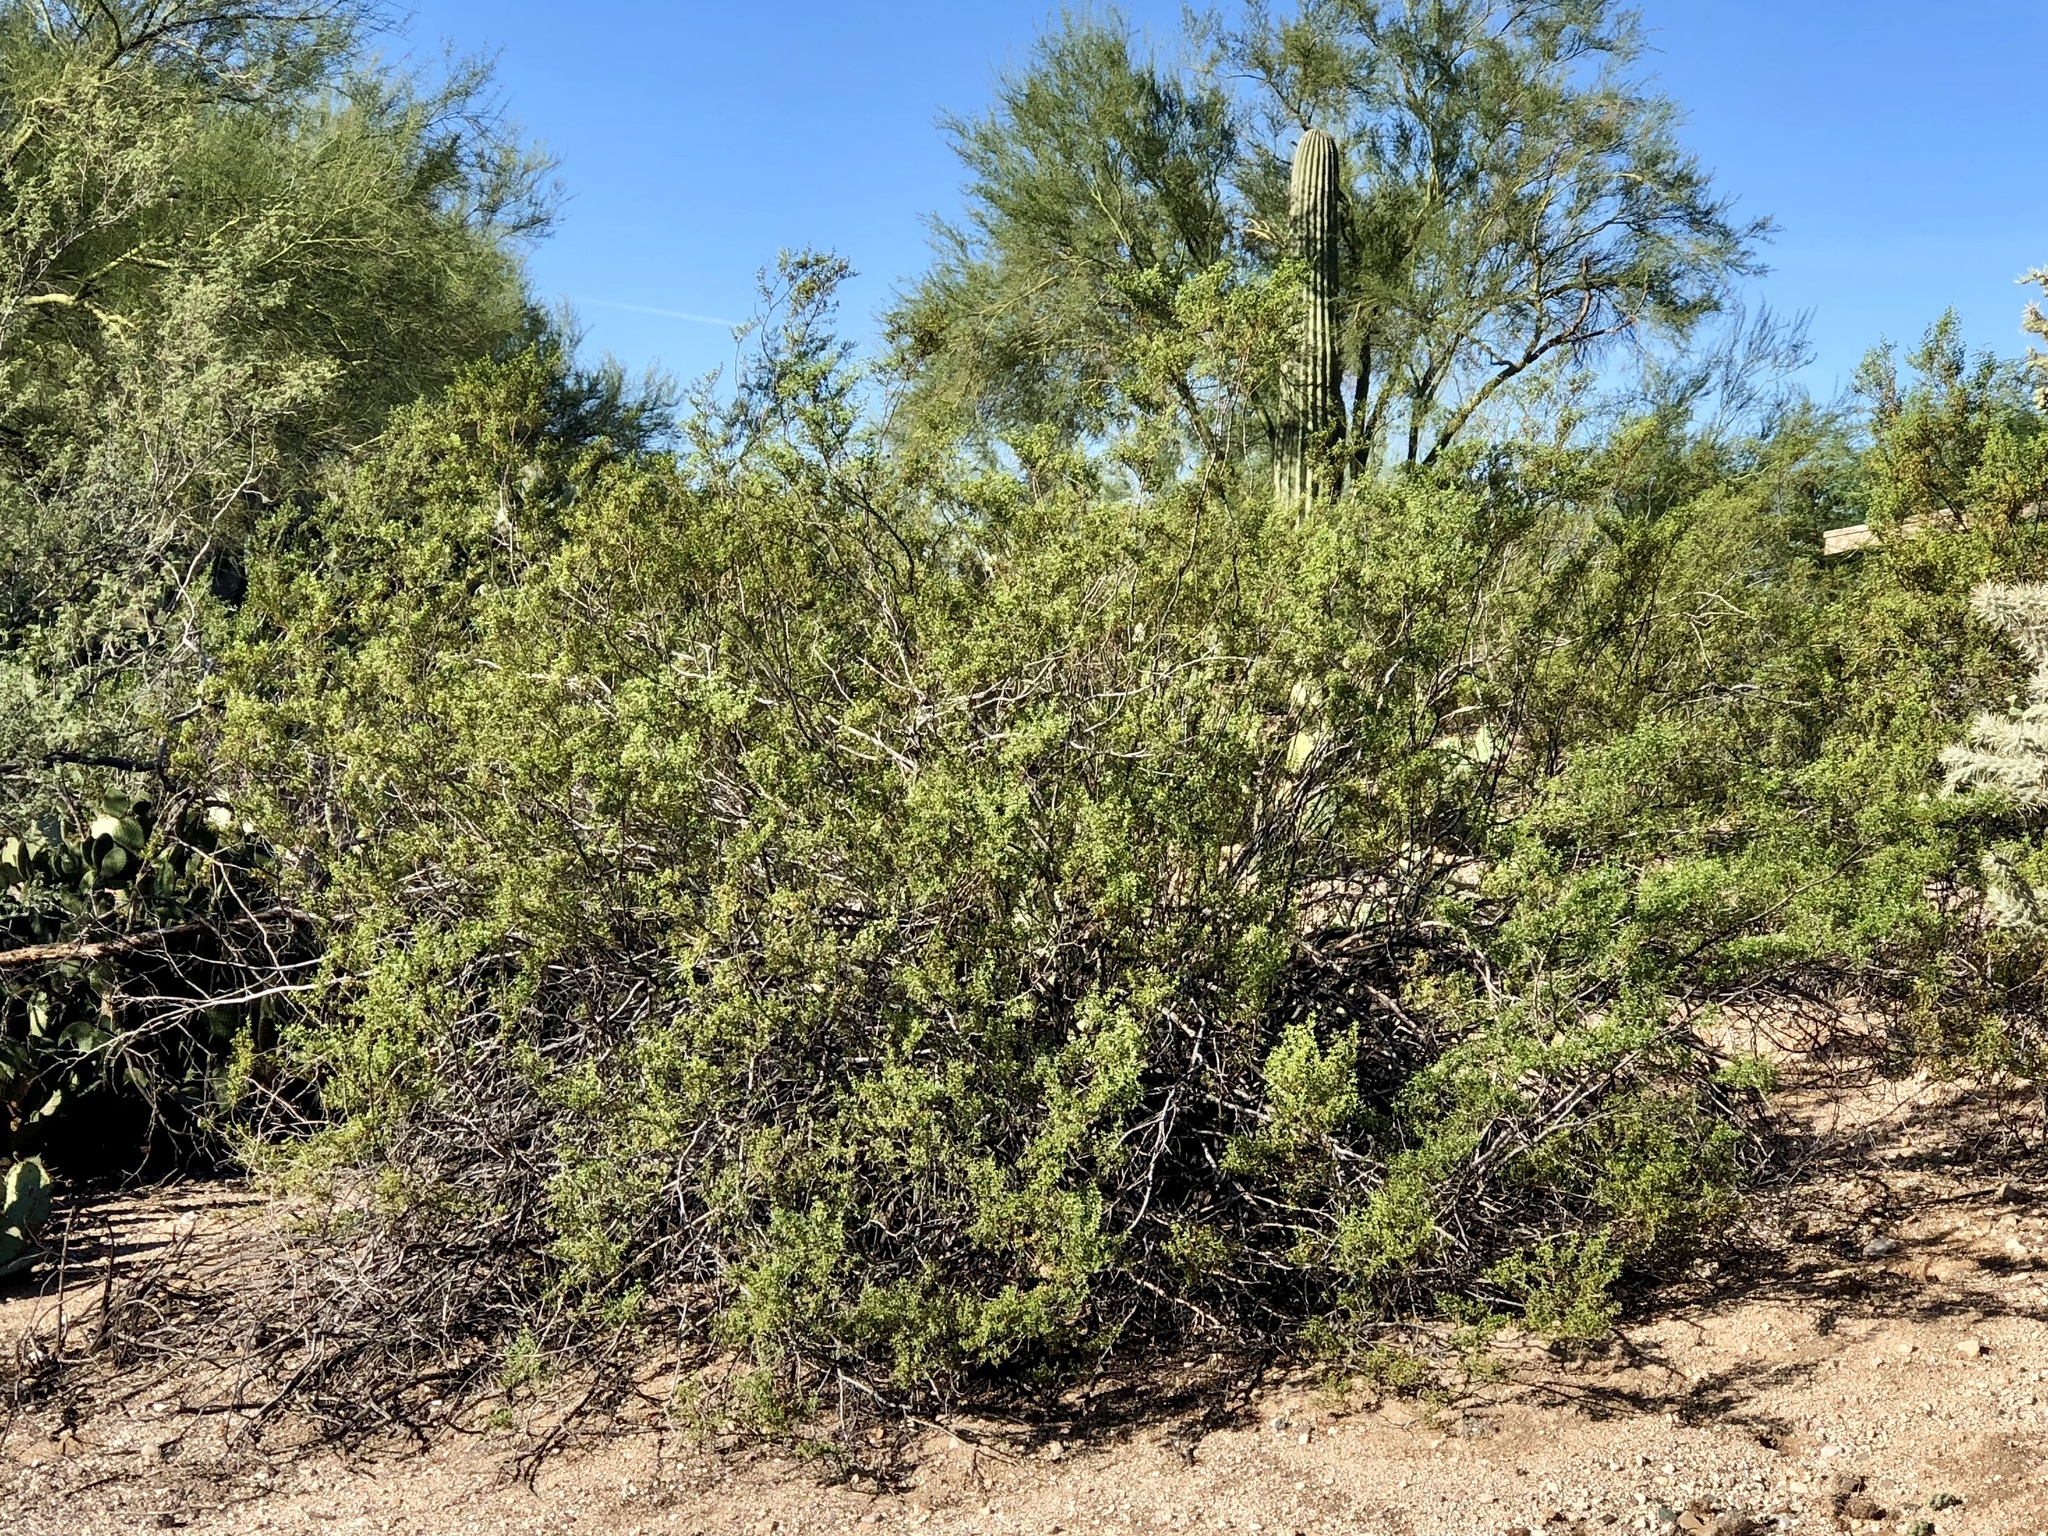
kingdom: Plantae
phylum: Tracheophyta
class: Magnoliopsida
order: Zygophyllales
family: Zygophyllaceae
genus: Larrea
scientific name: Larrea tridentata
